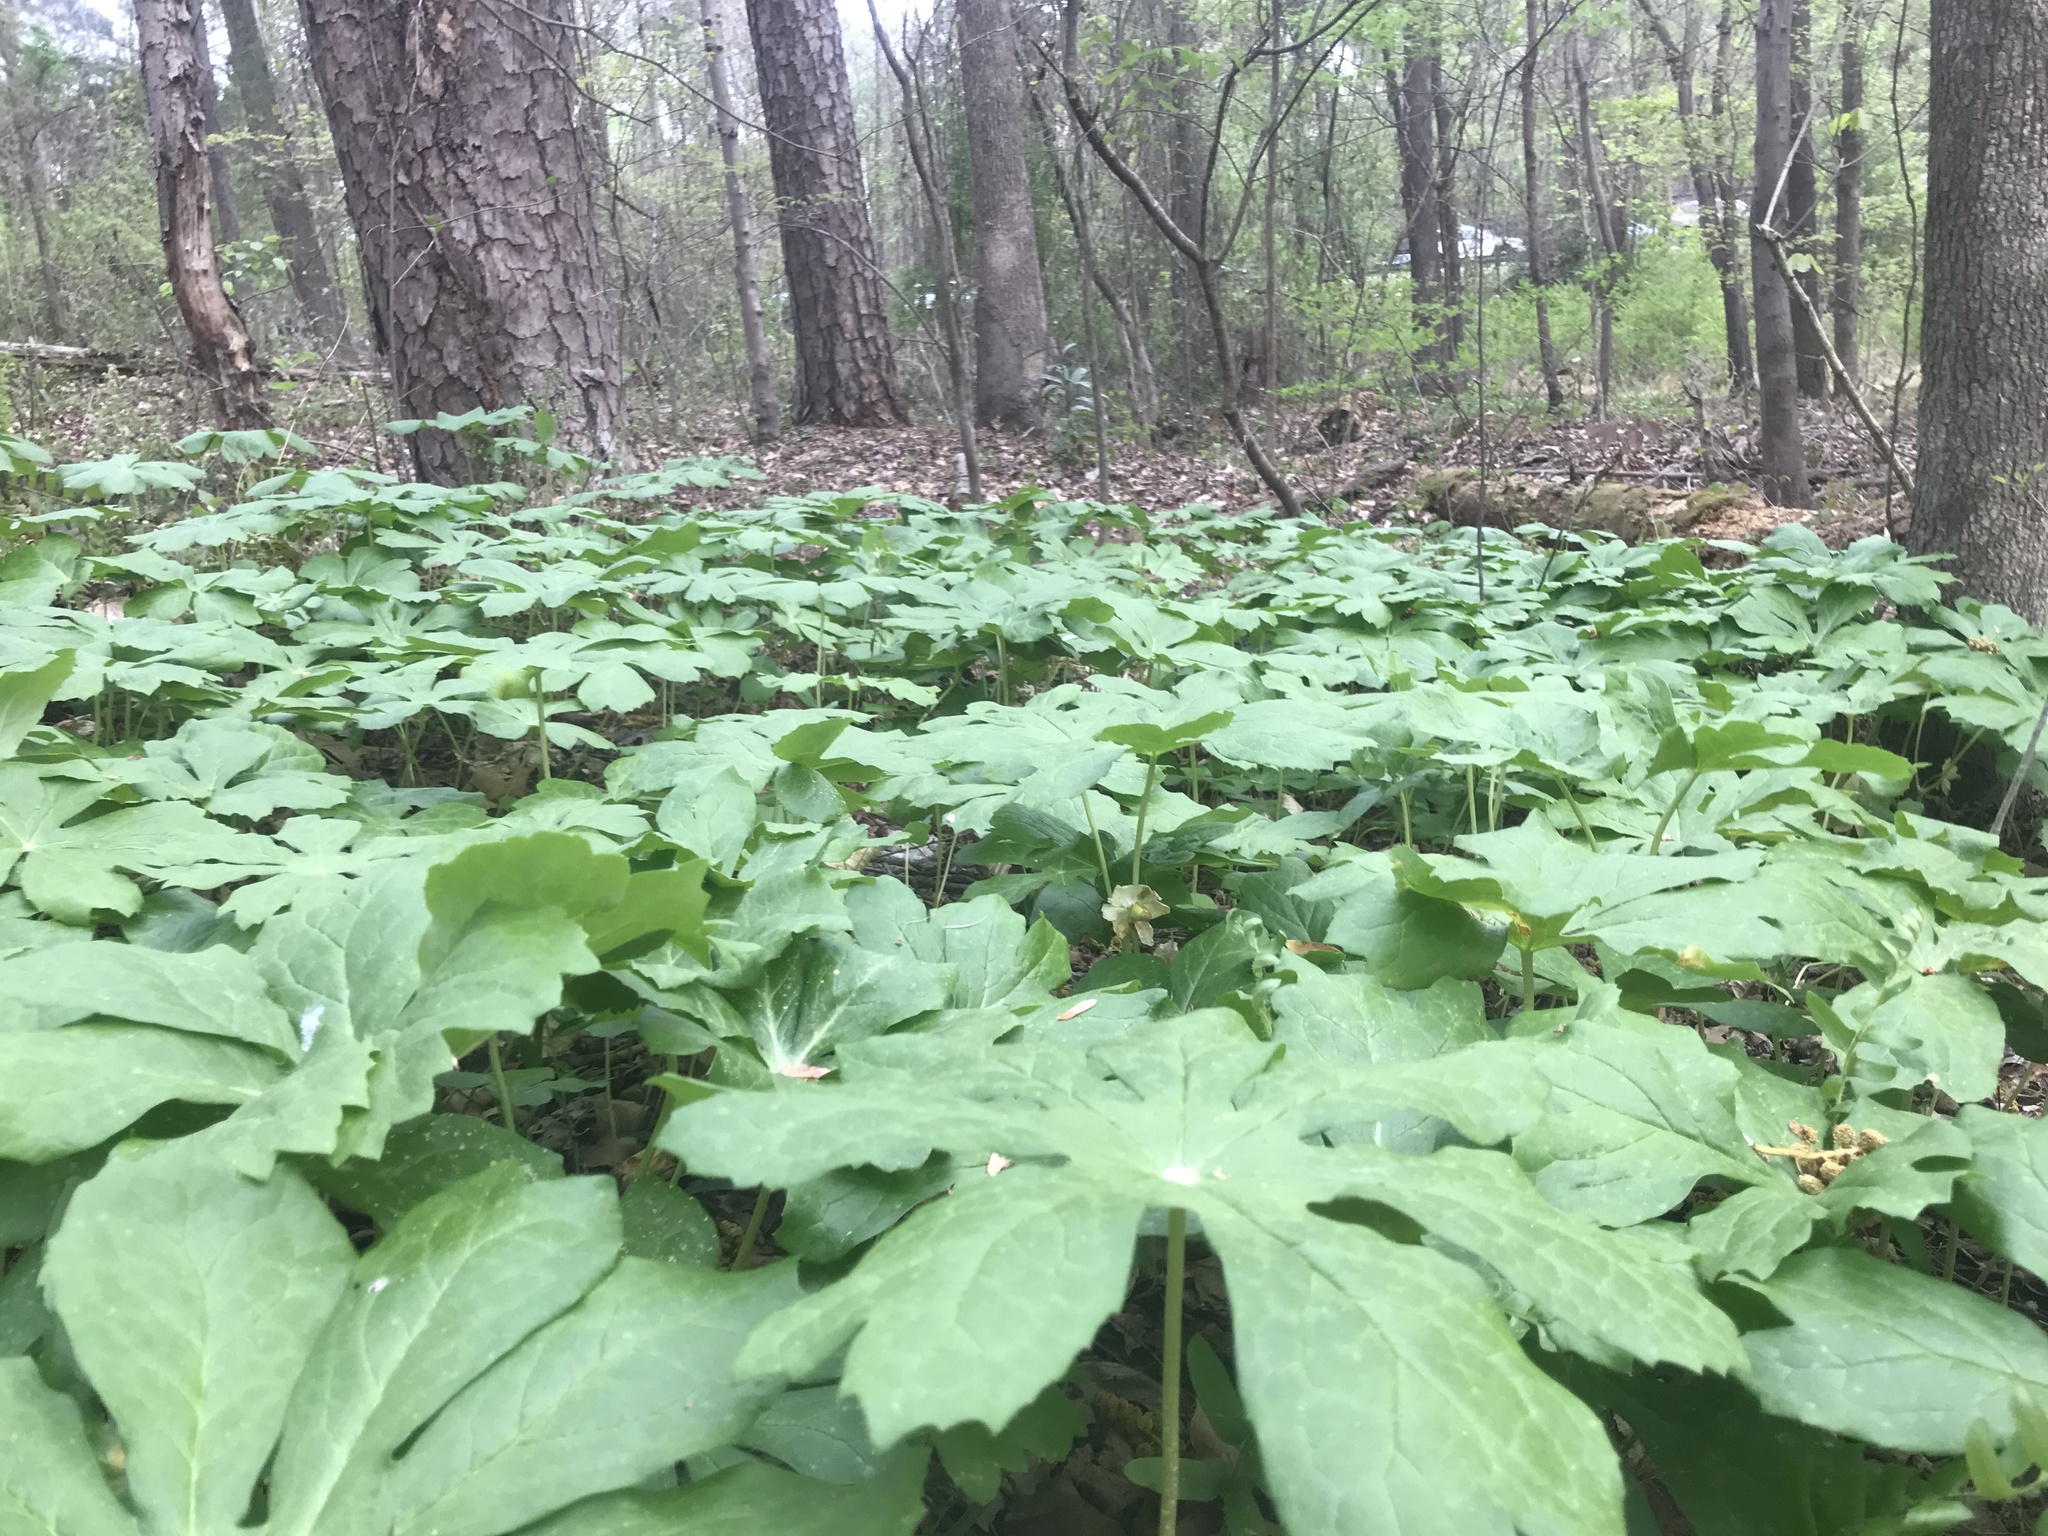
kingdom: Plantae
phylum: Tracheophyta
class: Magnoliopsida
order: Ranunculales
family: Berberidaceae
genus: Podophyllum
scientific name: Podophyllum peltatum
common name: Wild mandrake
